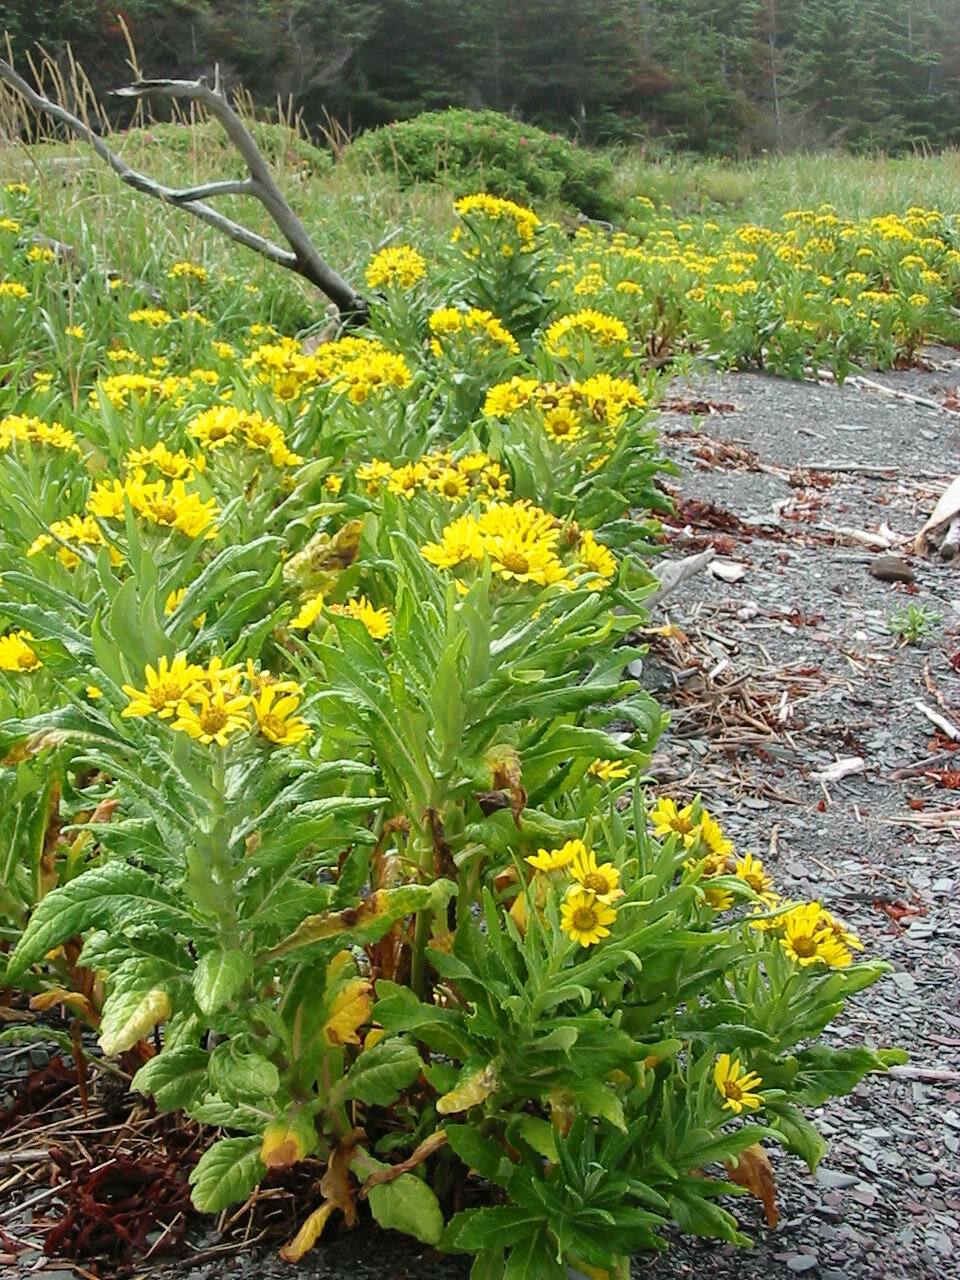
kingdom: Plantae
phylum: Tracheophyta
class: Magnoliopsida
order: Asterales
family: Asteraceae
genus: Jacobaea
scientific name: Jacobaea pseudoarnica
